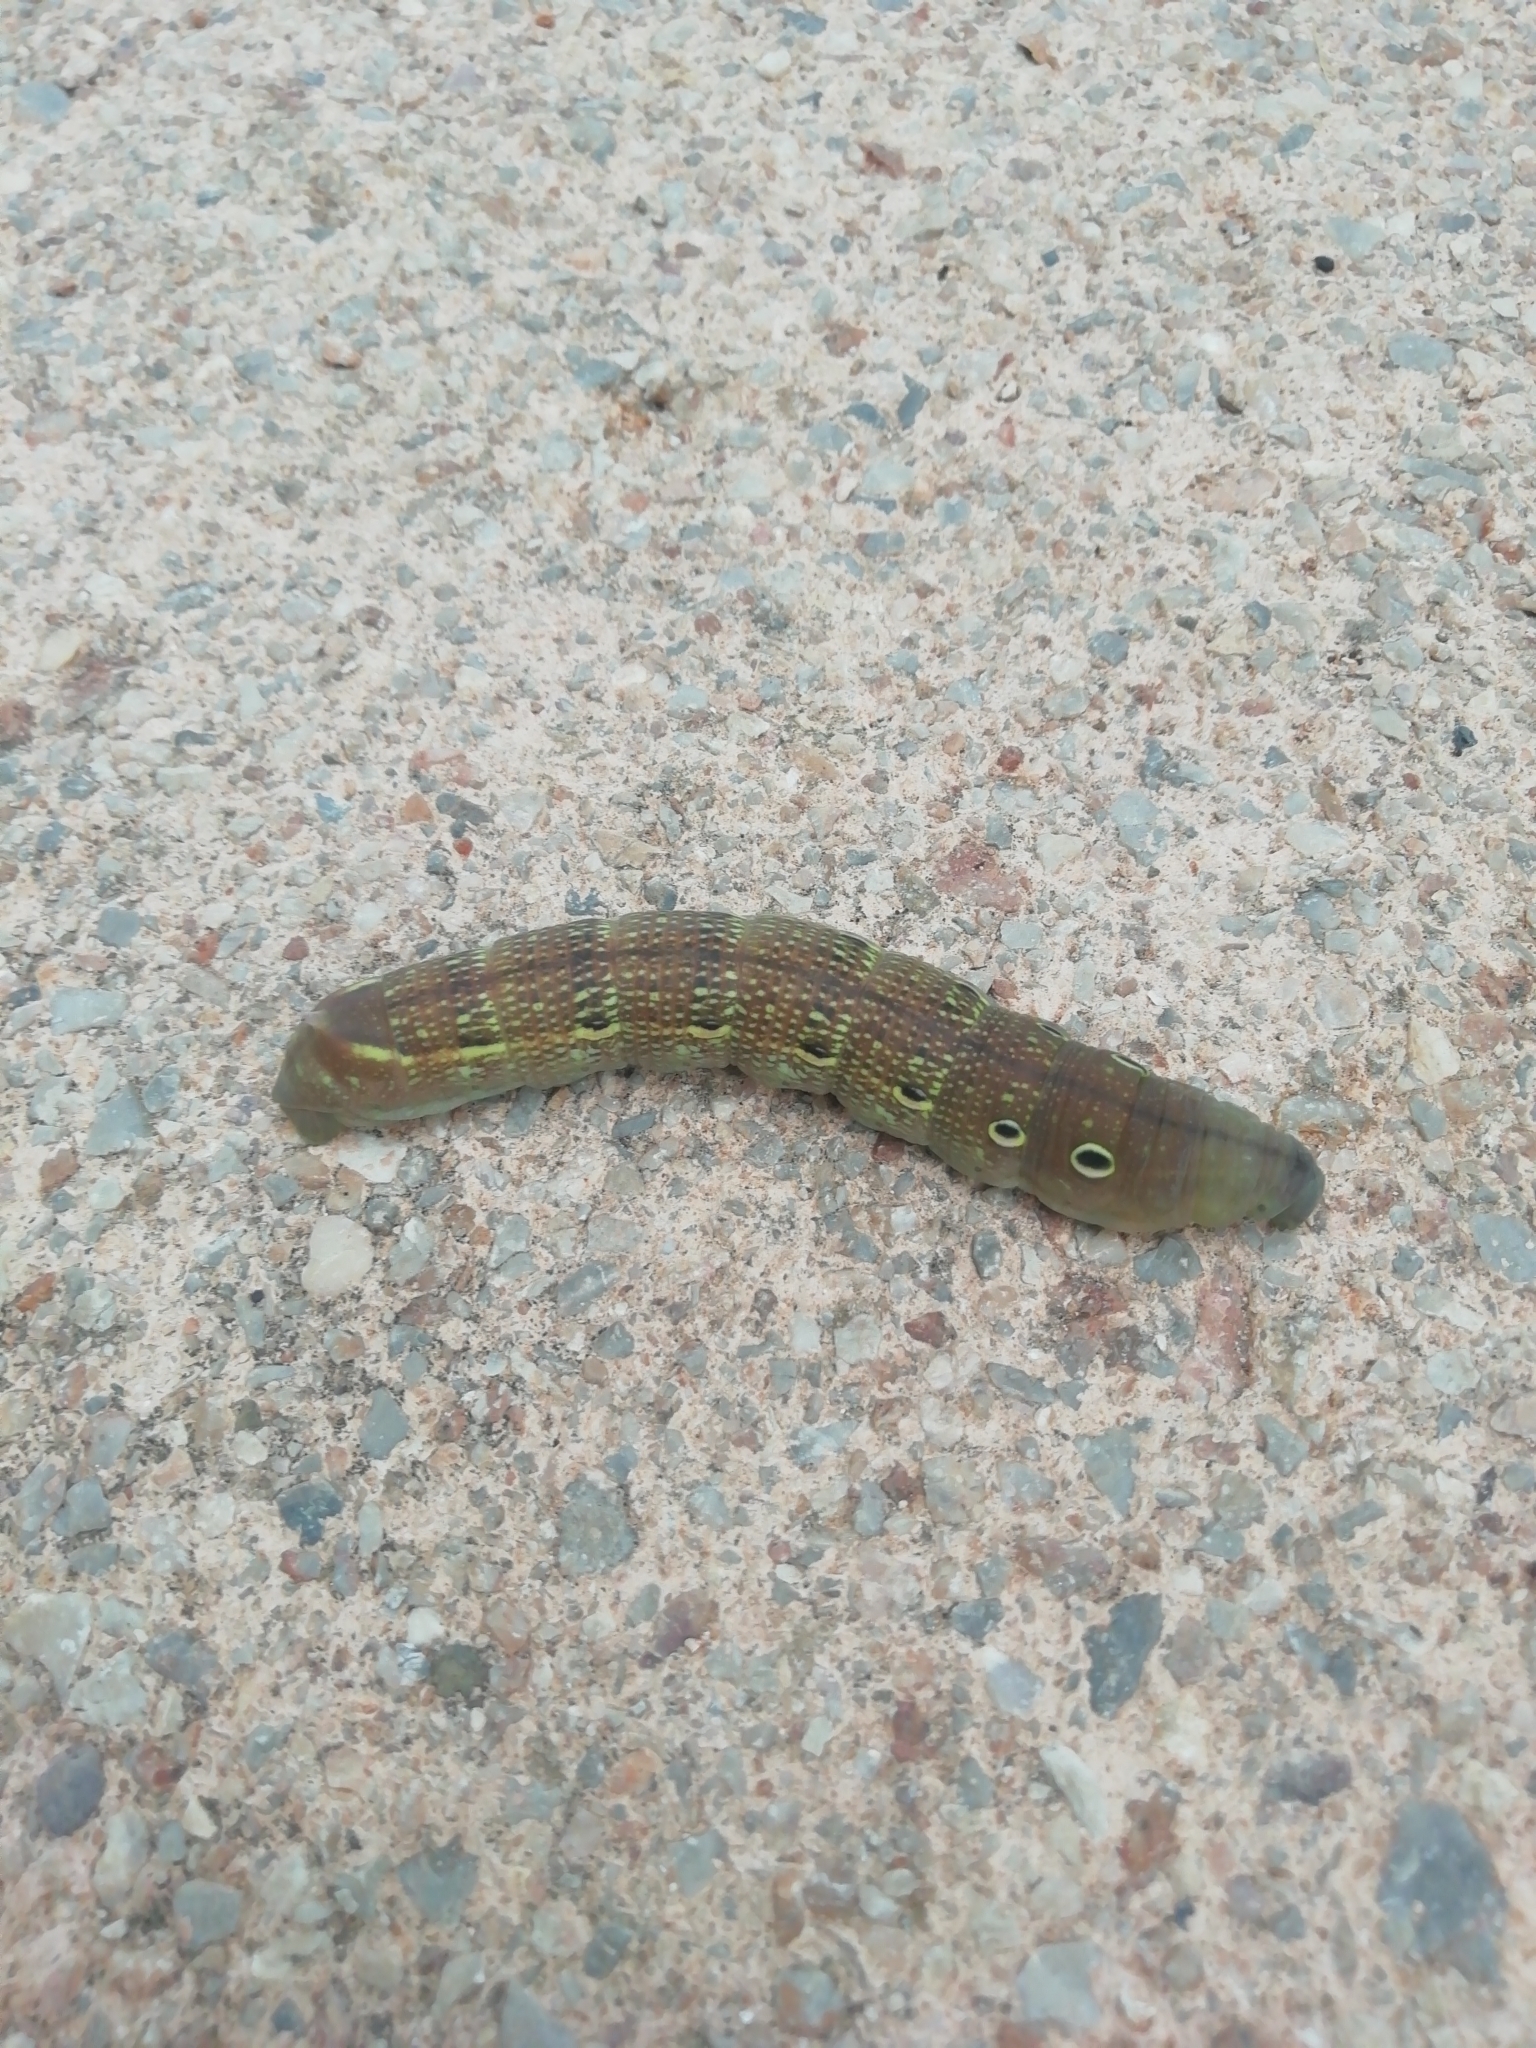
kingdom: Animalia
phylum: Arthropoda
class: Insecta
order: Lepidoptera
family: Sphingidae
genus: Theretra
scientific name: Theretra alecto
